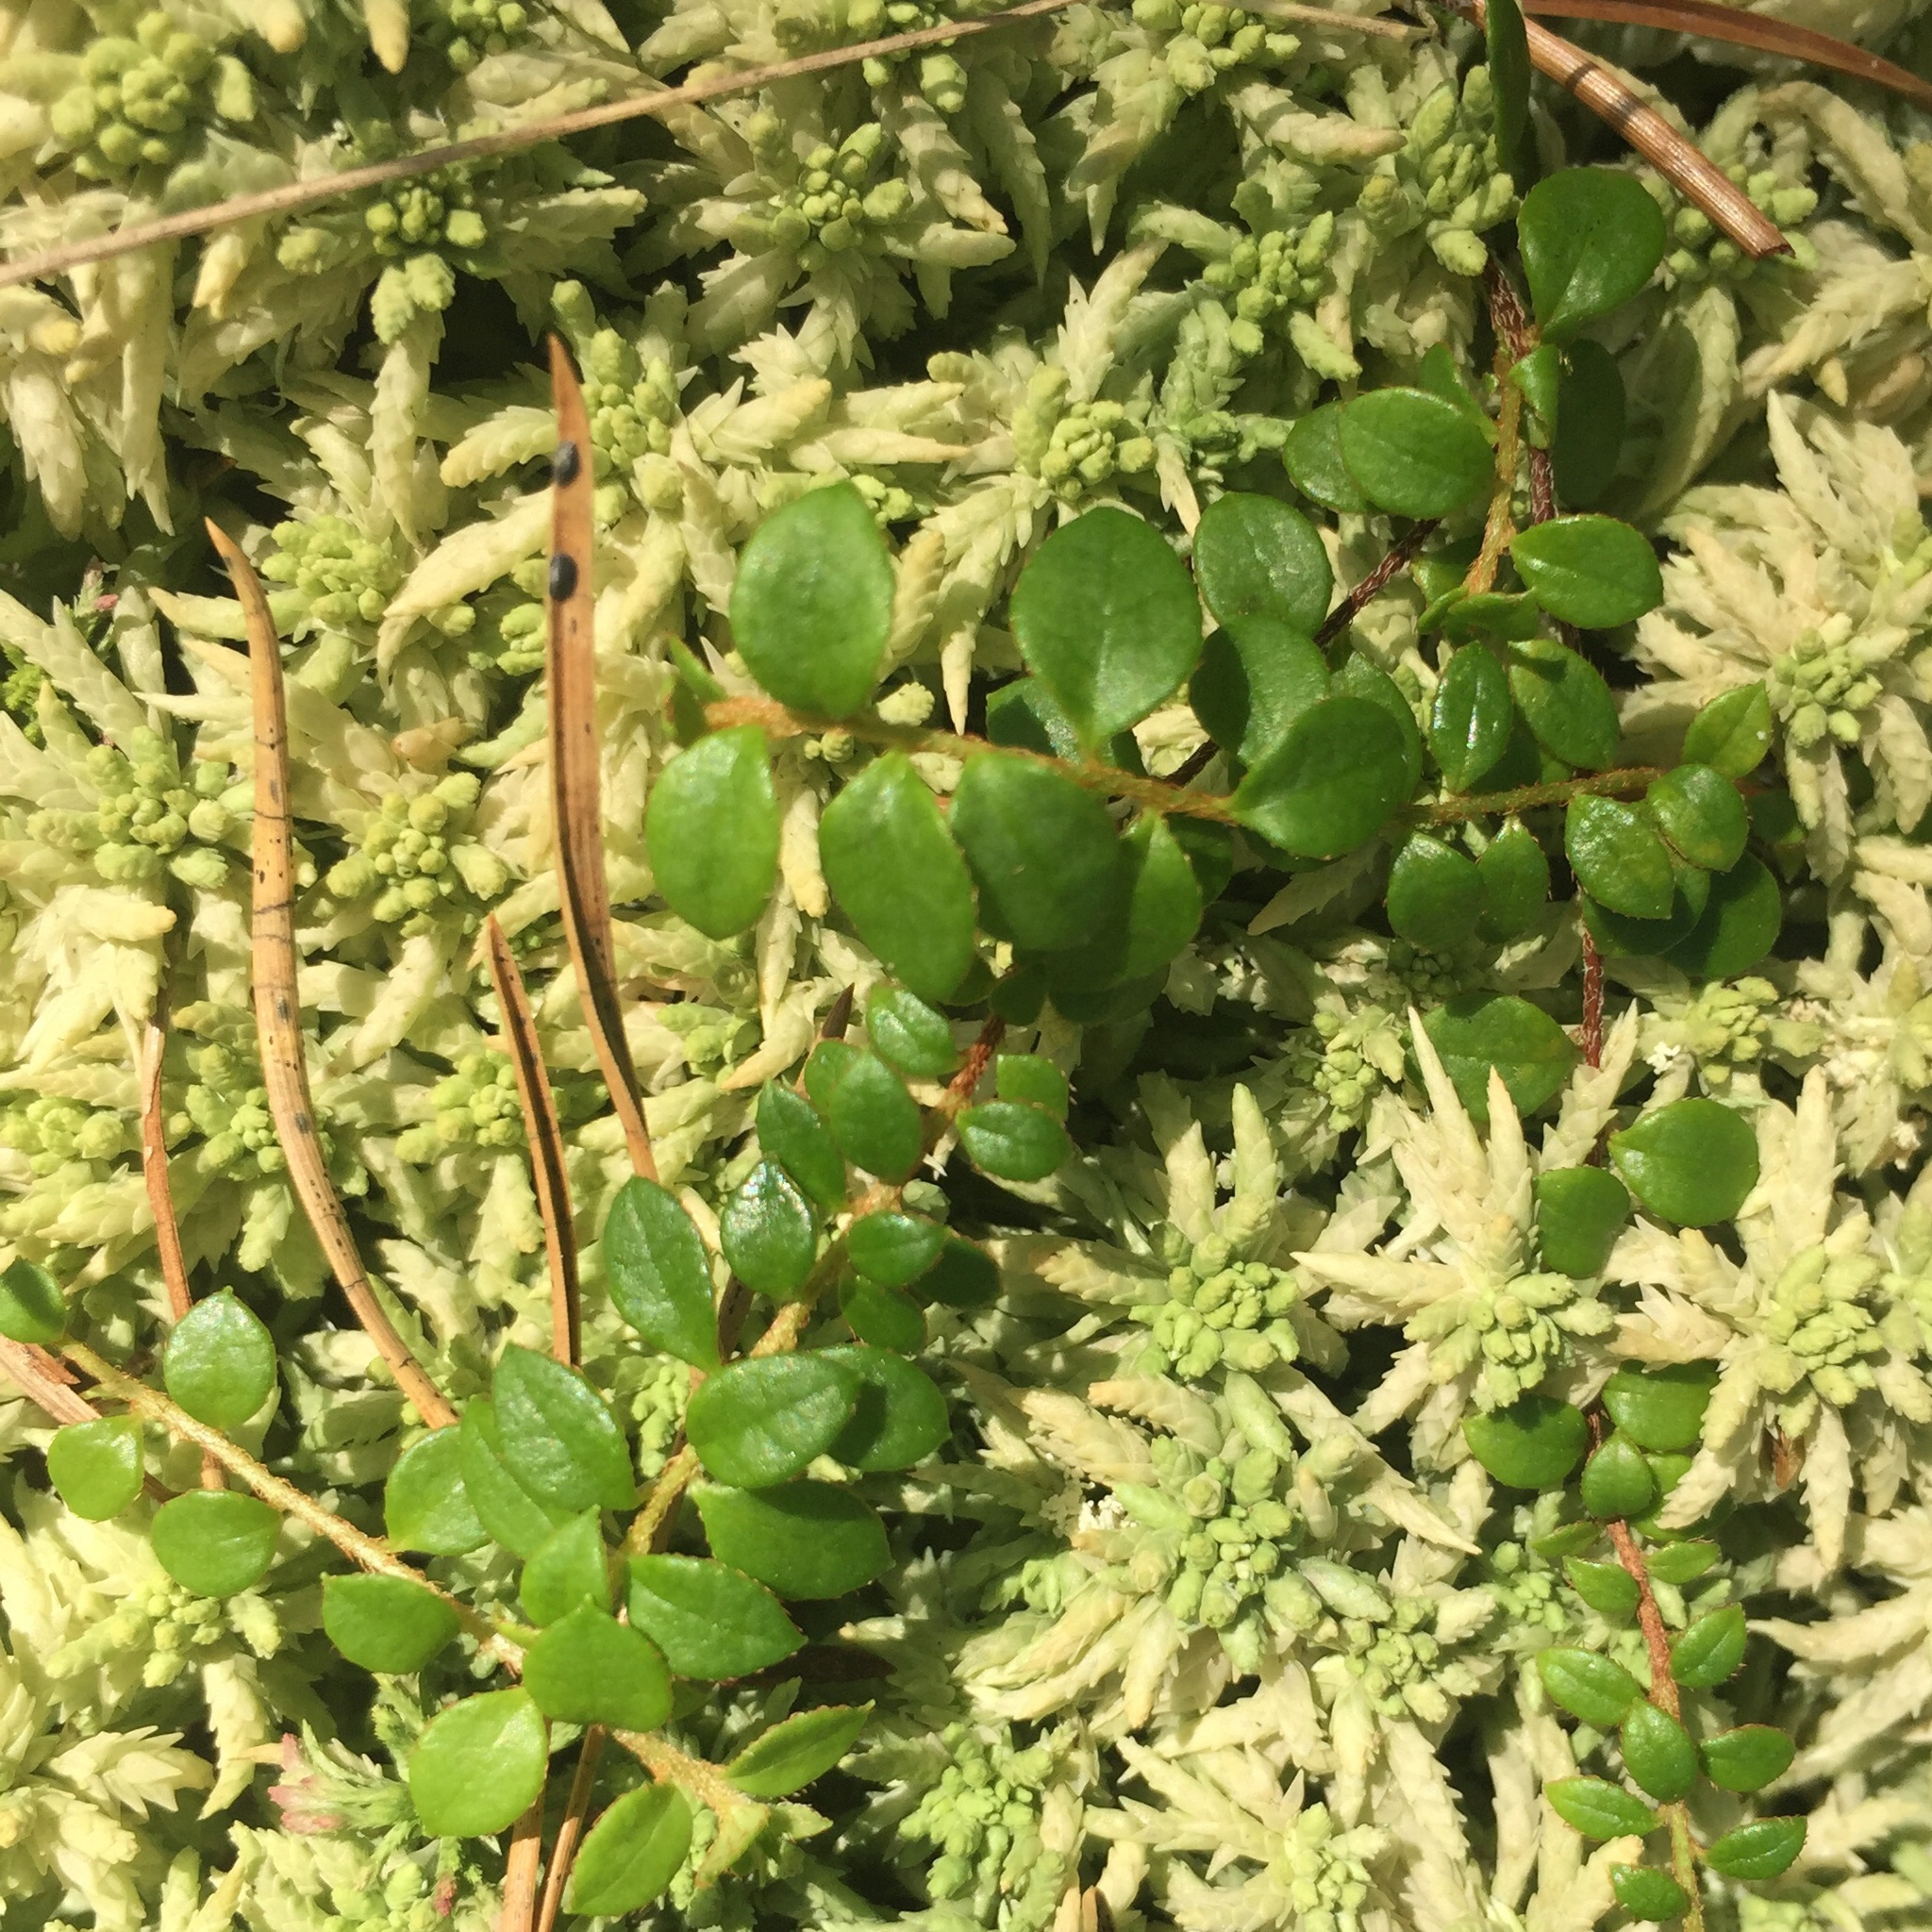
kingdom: Plantae
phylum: Tracheophyta
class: Magnoliopsida
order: Ericales
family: Ericaceae
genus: Gaultheria
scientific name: Gaultheria hispidula
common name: Cancer wintergreen
